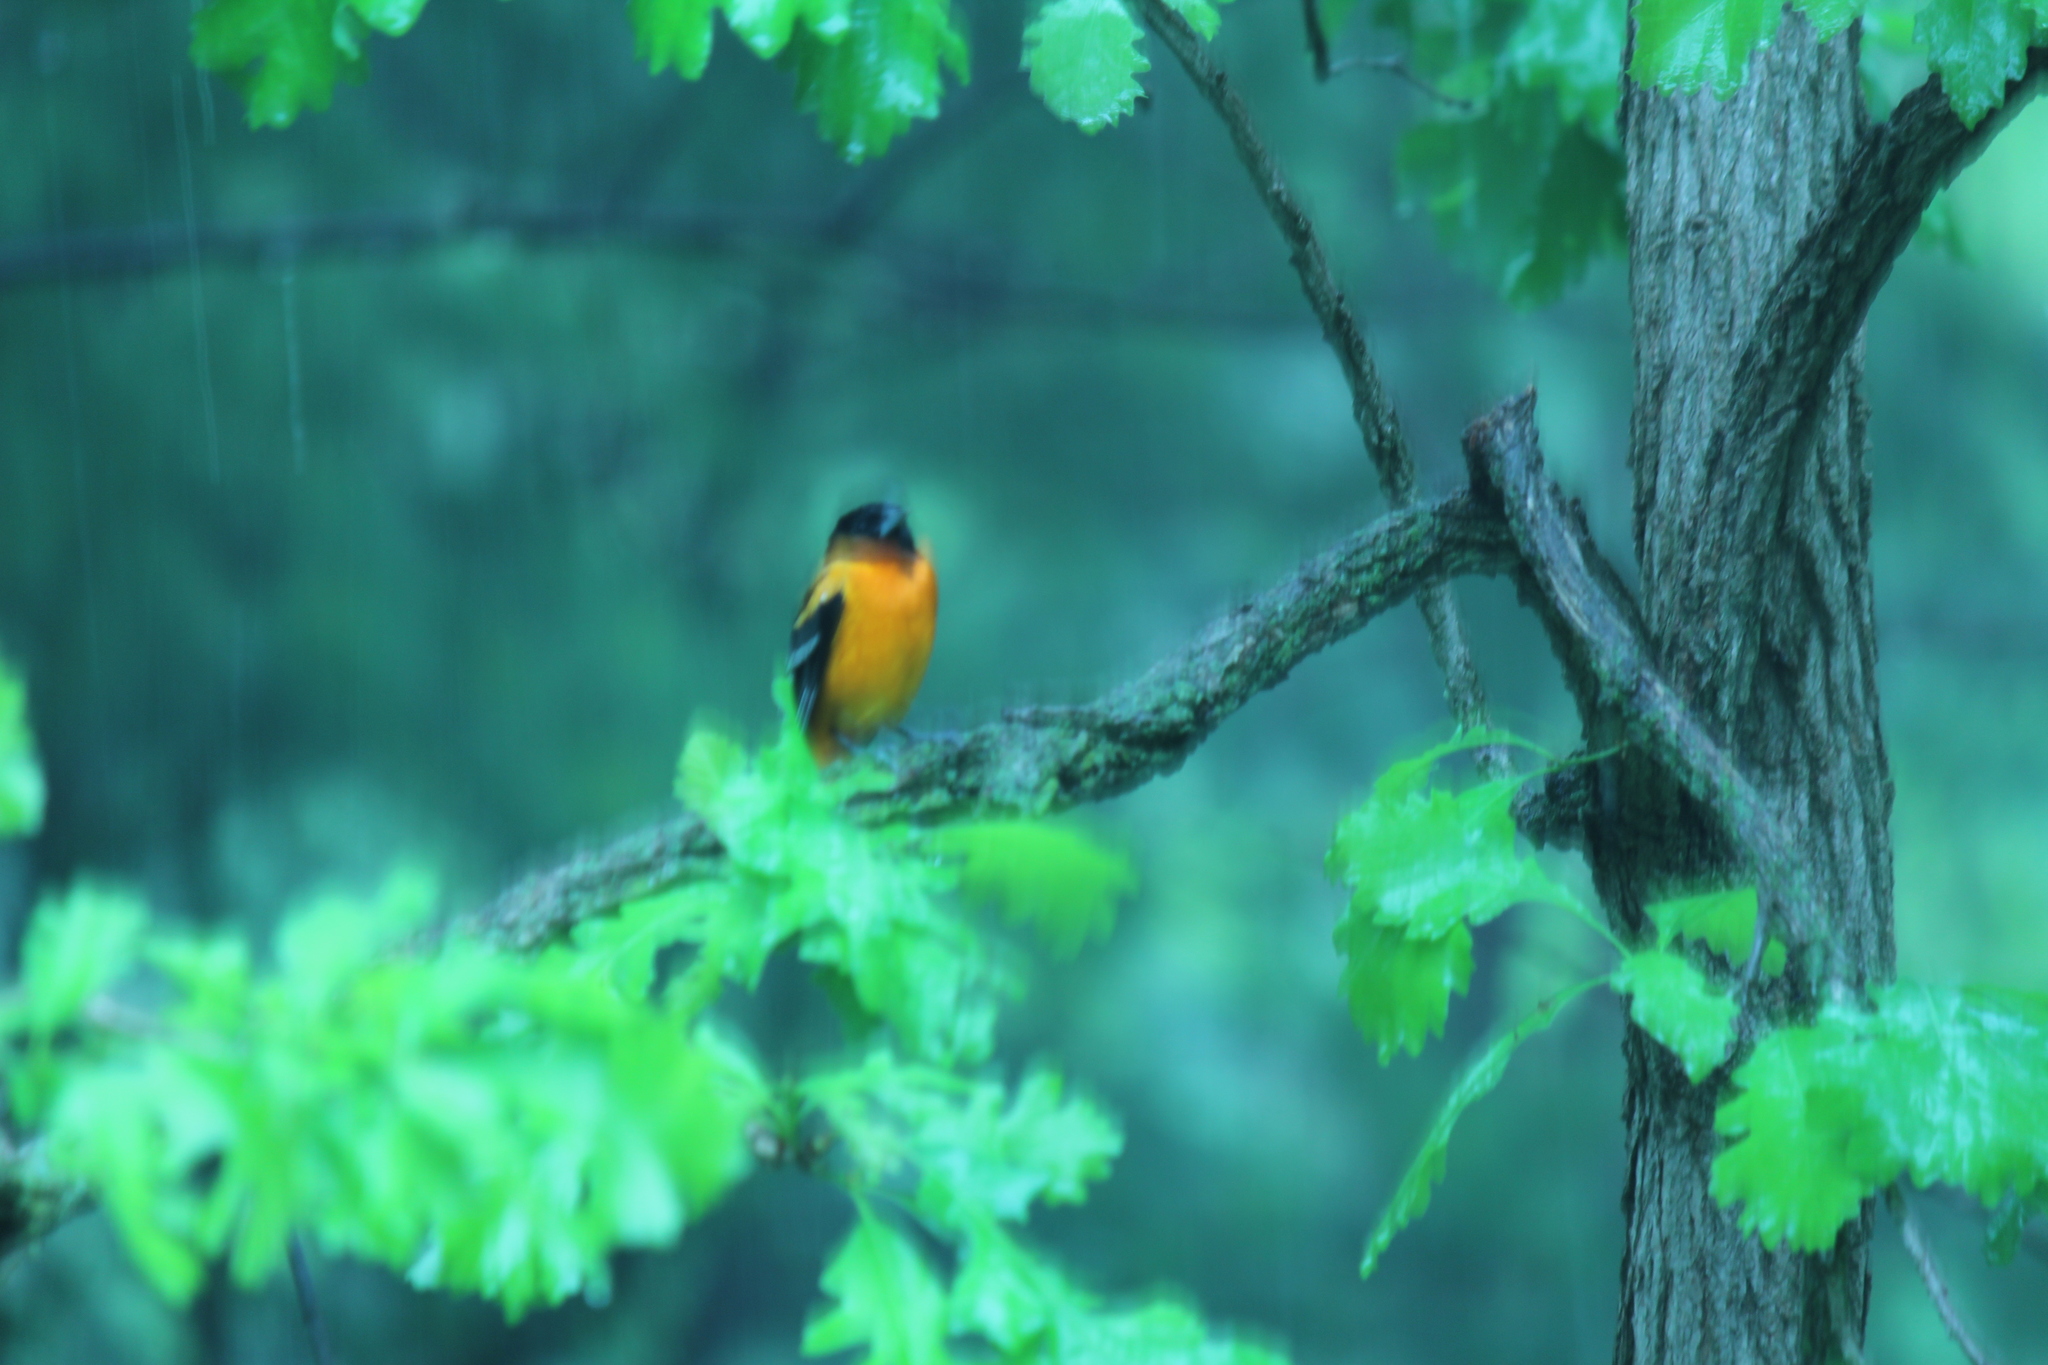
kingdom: Animalia
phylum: Chordata
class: Aves
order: Passeriformes
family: Icteridae
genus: Icterus
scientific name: Icterus galbula
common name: Baltimore oriole
